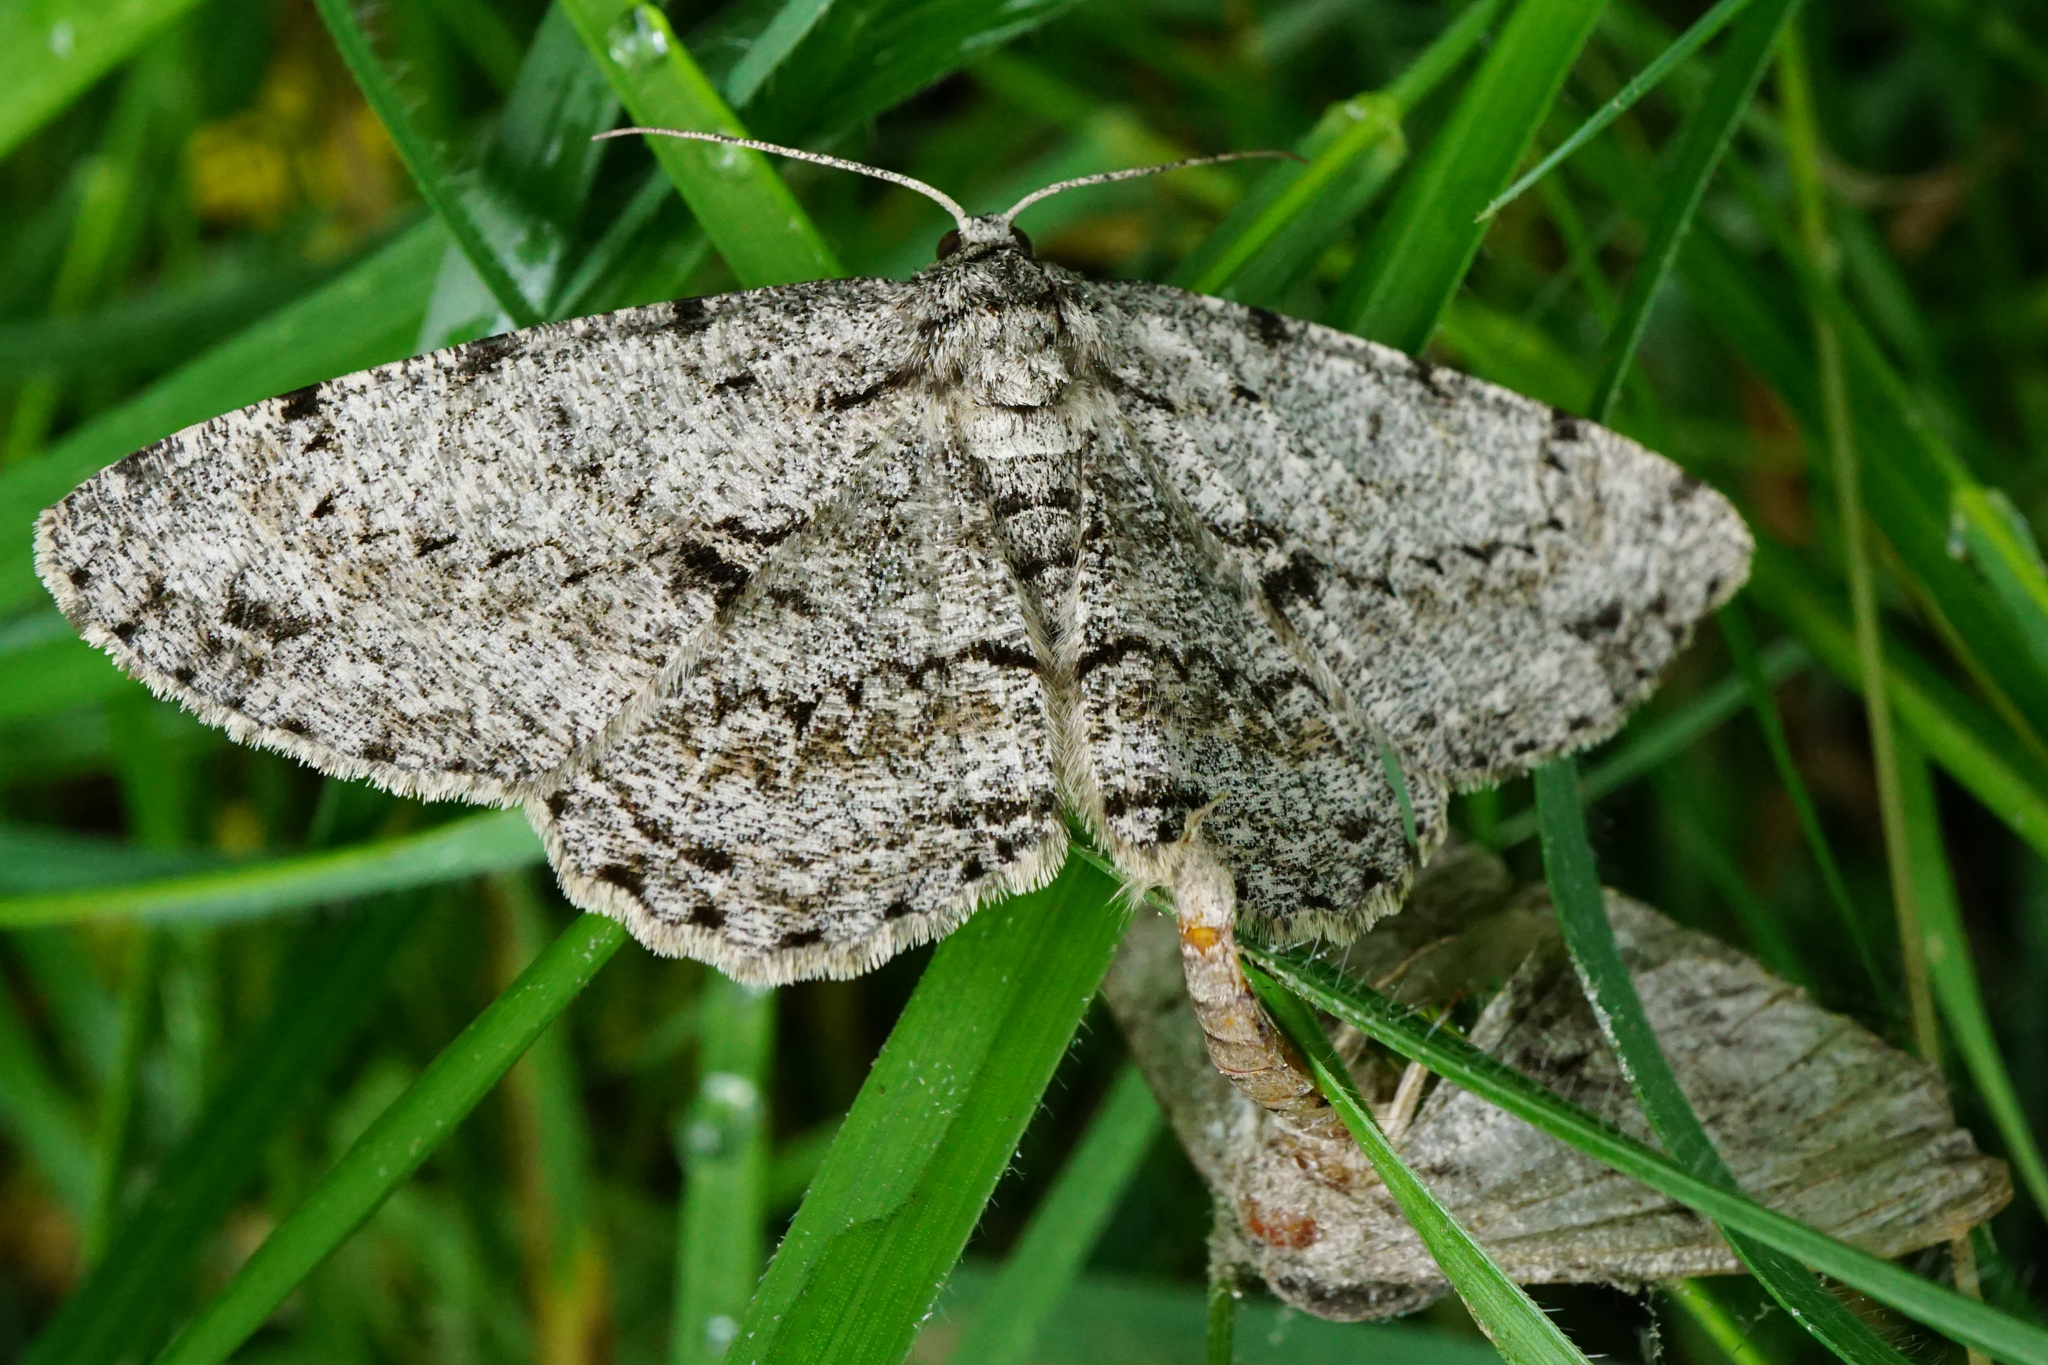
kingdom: Animalia
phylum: Arthropoda
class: Insecta
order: Lepidoptera
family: Geometridae
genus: Hypomecis
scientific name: Hypomecis roboraria
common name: Great oak beauty
